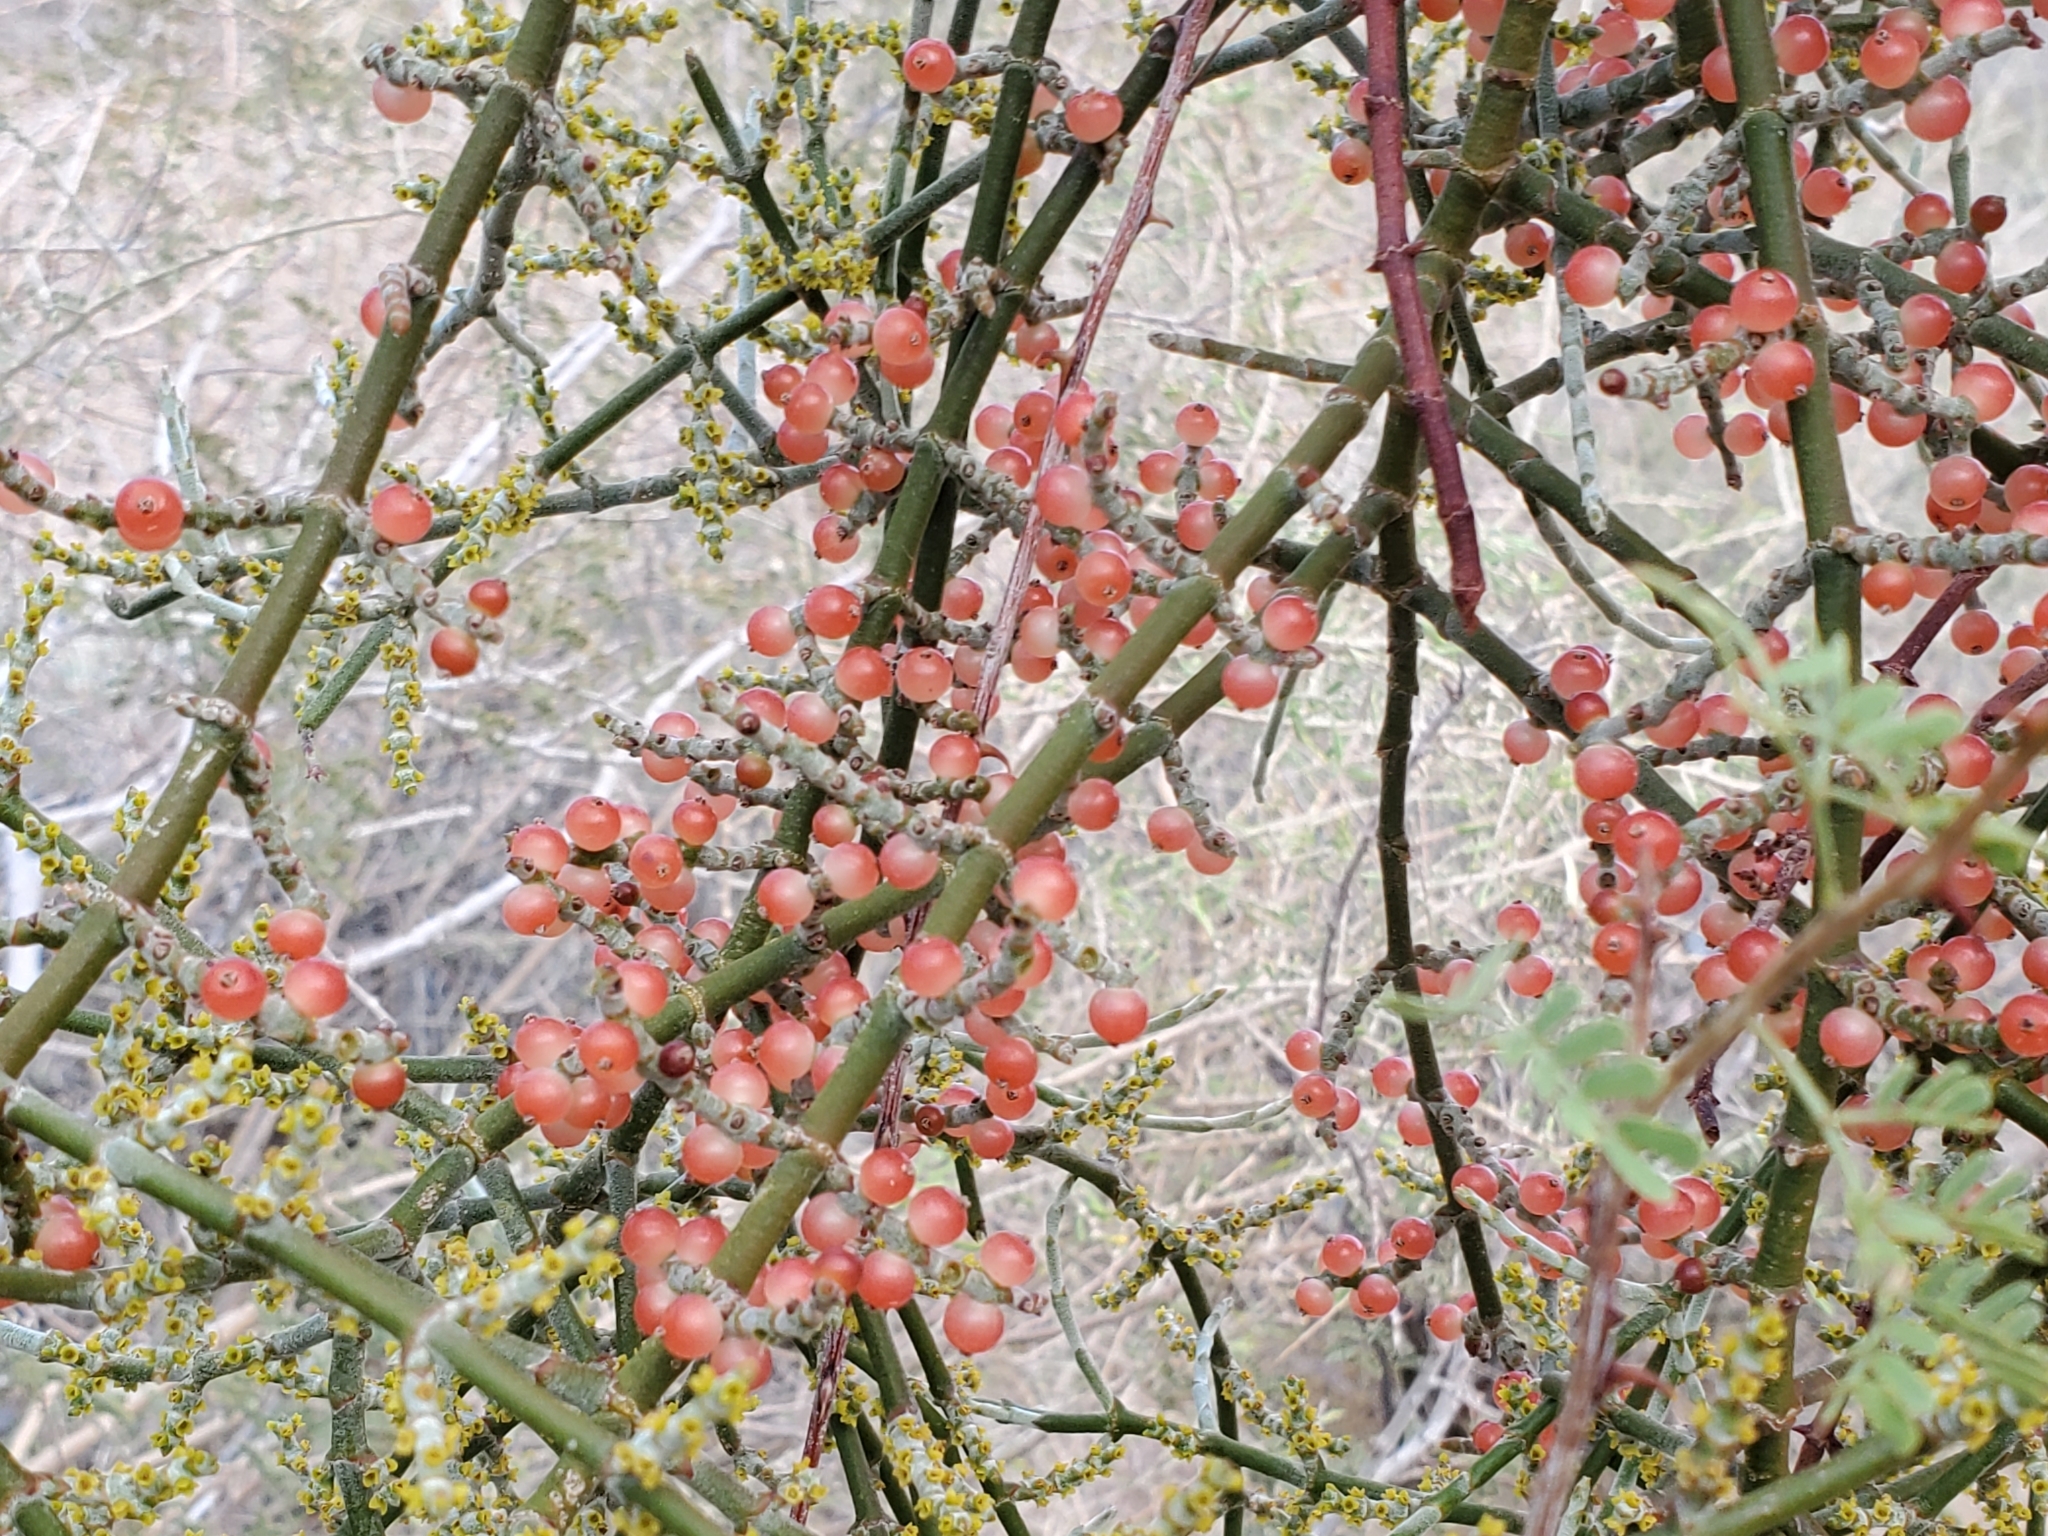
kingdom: Plantae
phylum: Tracheophyta
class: Magnoliopsida
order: Santalales
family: Viscaceae
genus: Phoradendron
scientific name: Phoradendron californicum
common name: Acacia mistletoe
